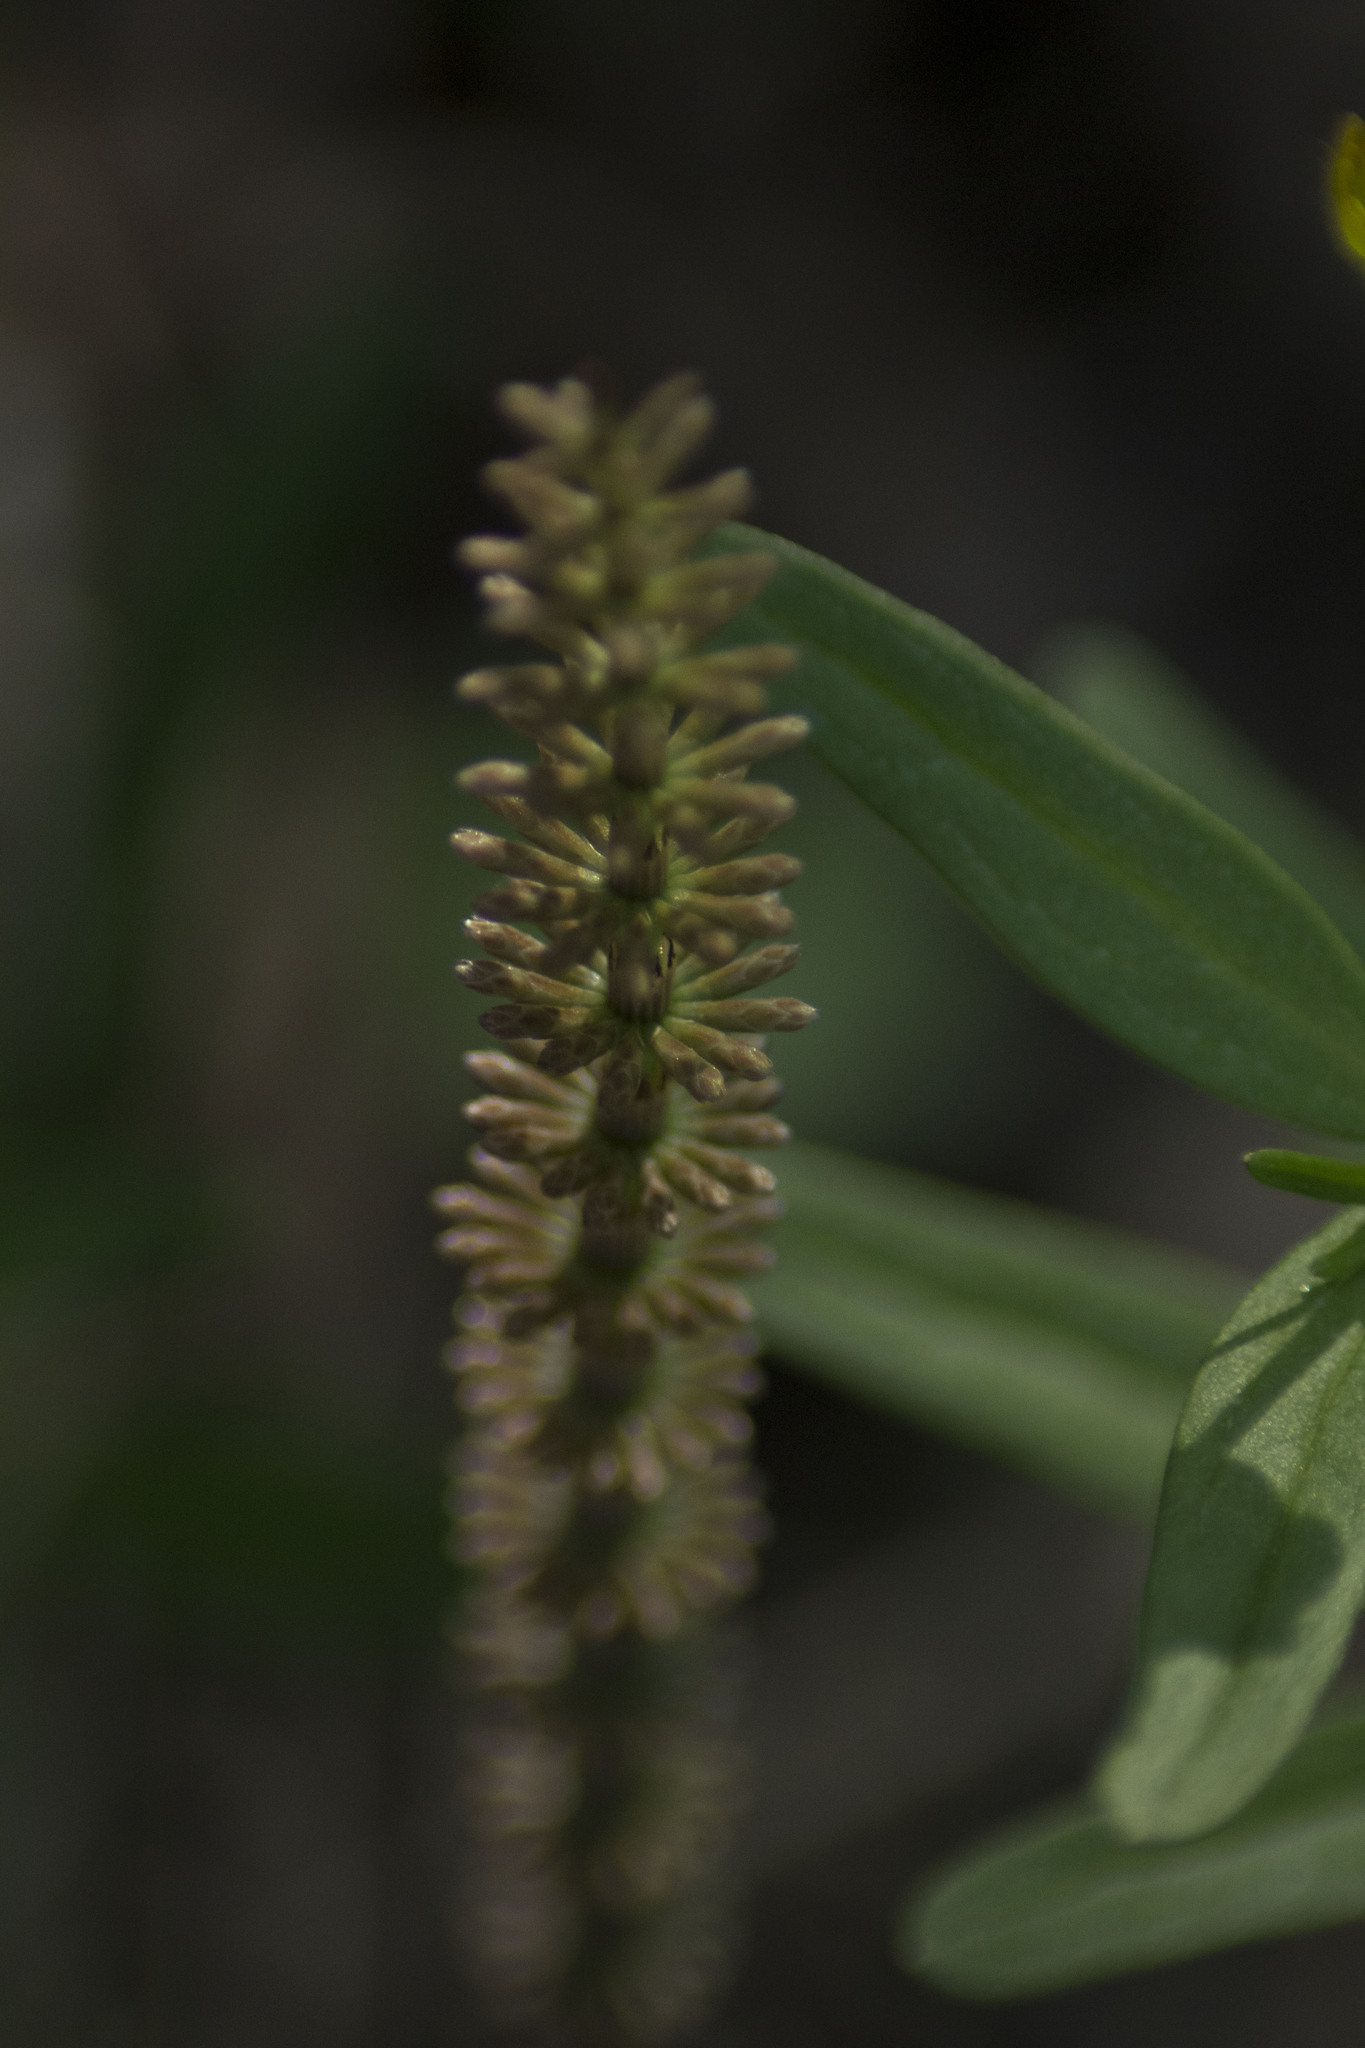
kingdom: Plantae
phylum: Tracheophyta
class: Polypodiopsida
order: Equisetales
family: Equisetaceae
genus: Equisetum
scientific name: Equisetum pratense
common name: Meadow horsetail
